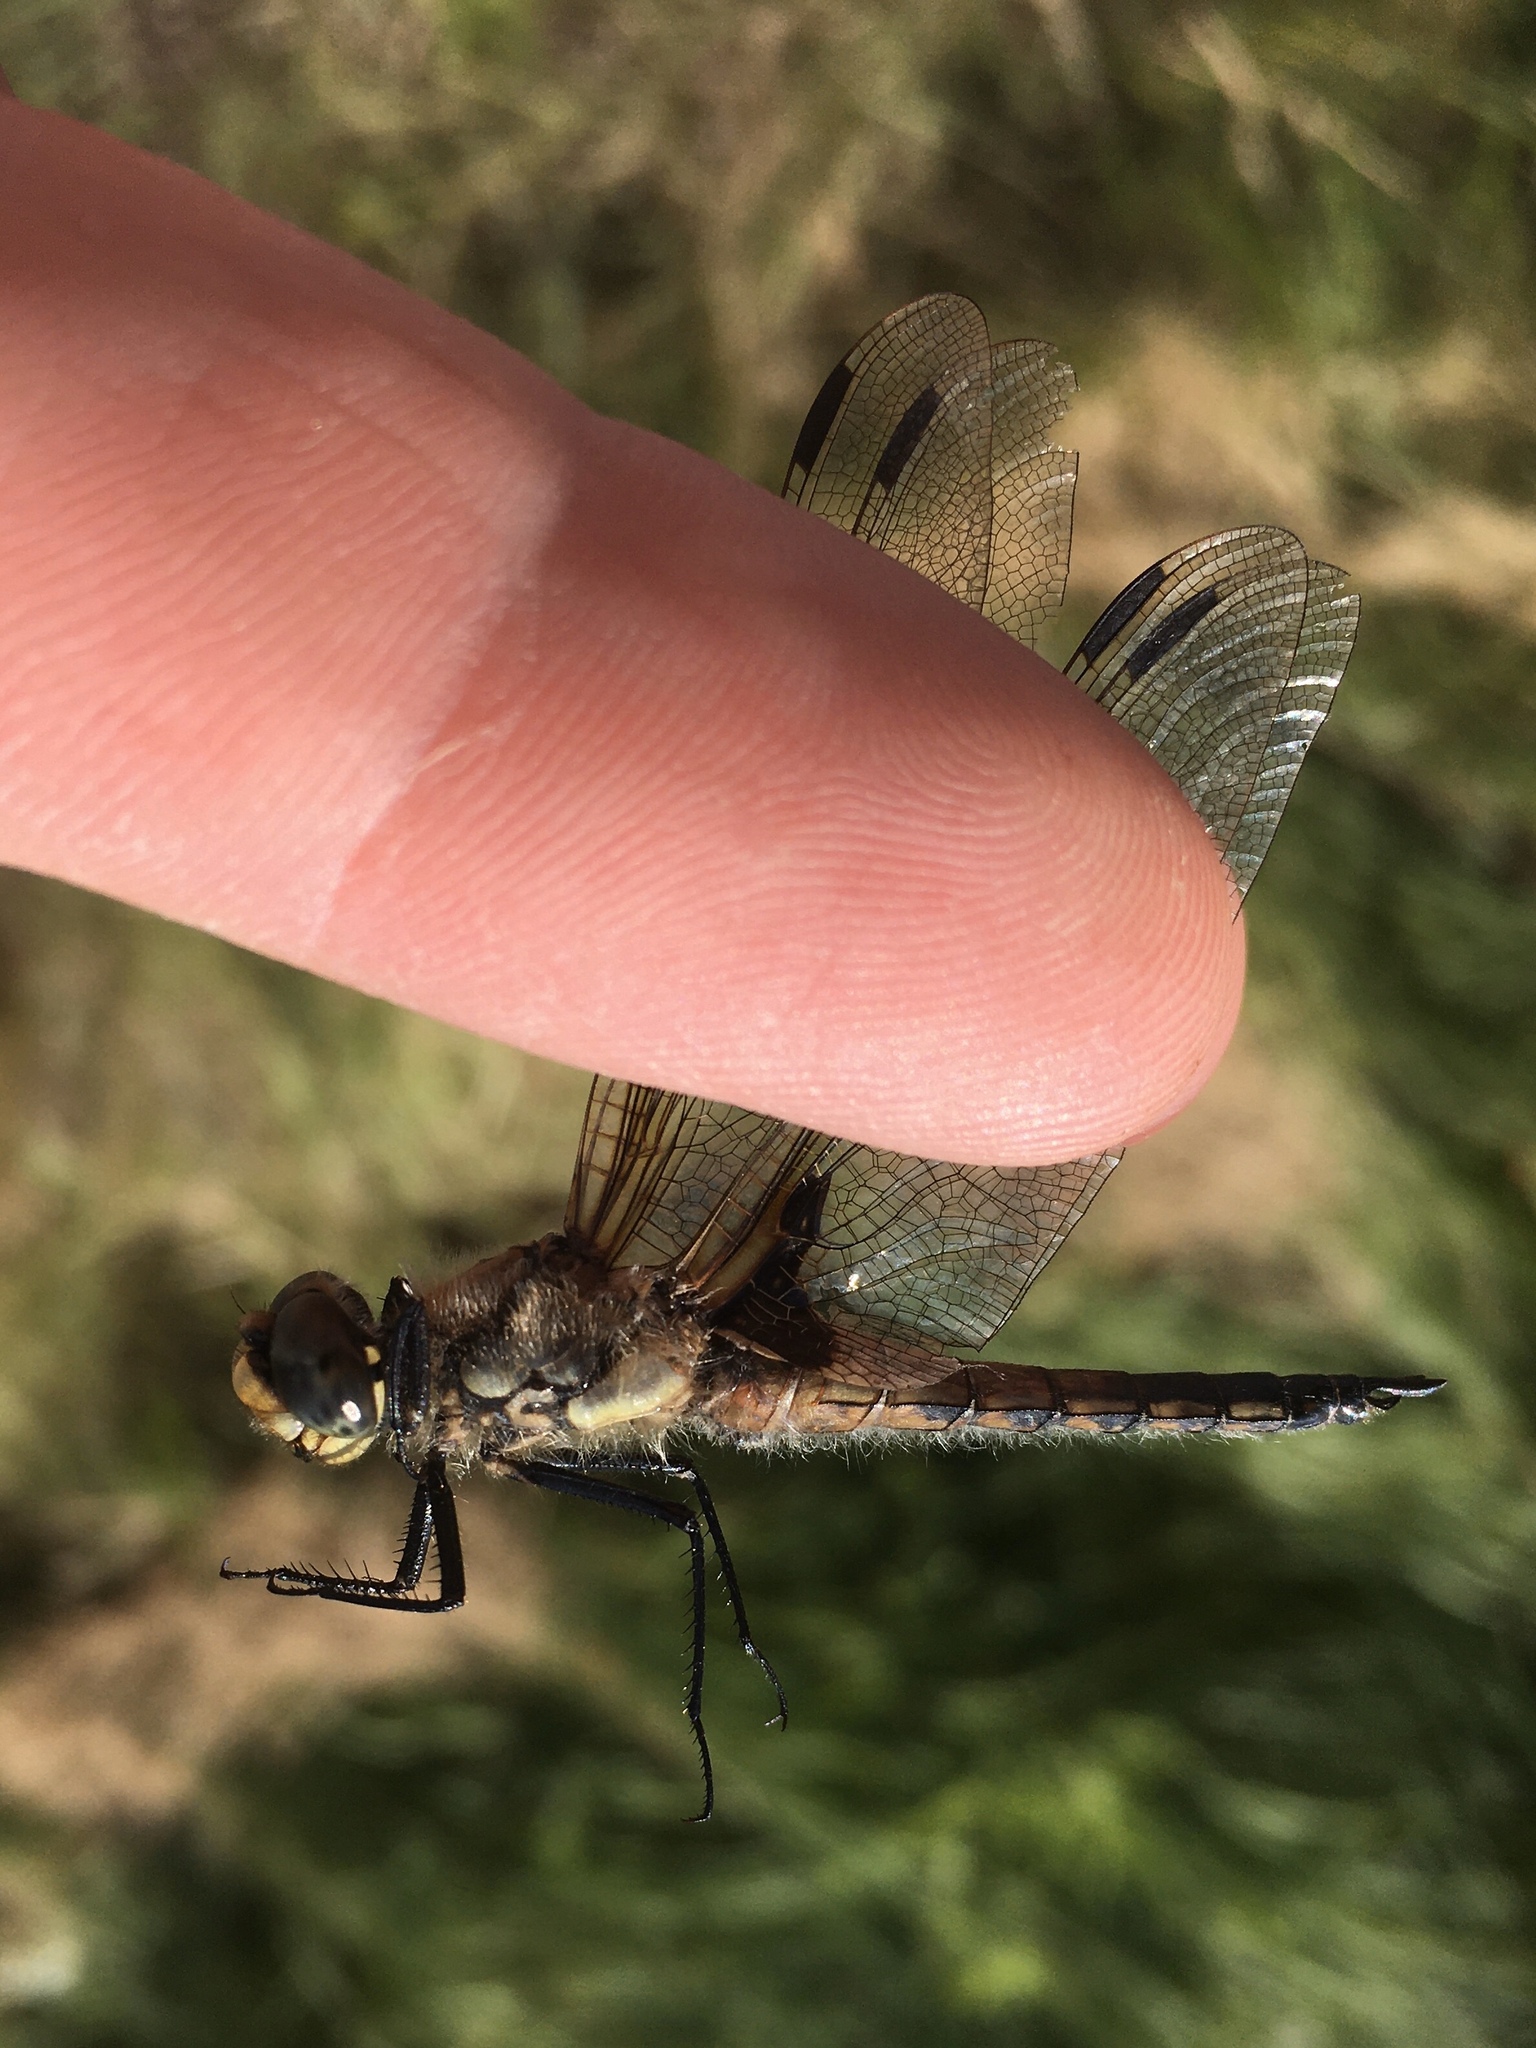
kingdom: Animalia
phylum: Arthropoda
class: Insecta
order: Odonata
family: Libellulidae
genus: Libellula
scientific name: Libellula quadrimaculata
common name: Four-spotted chaser
